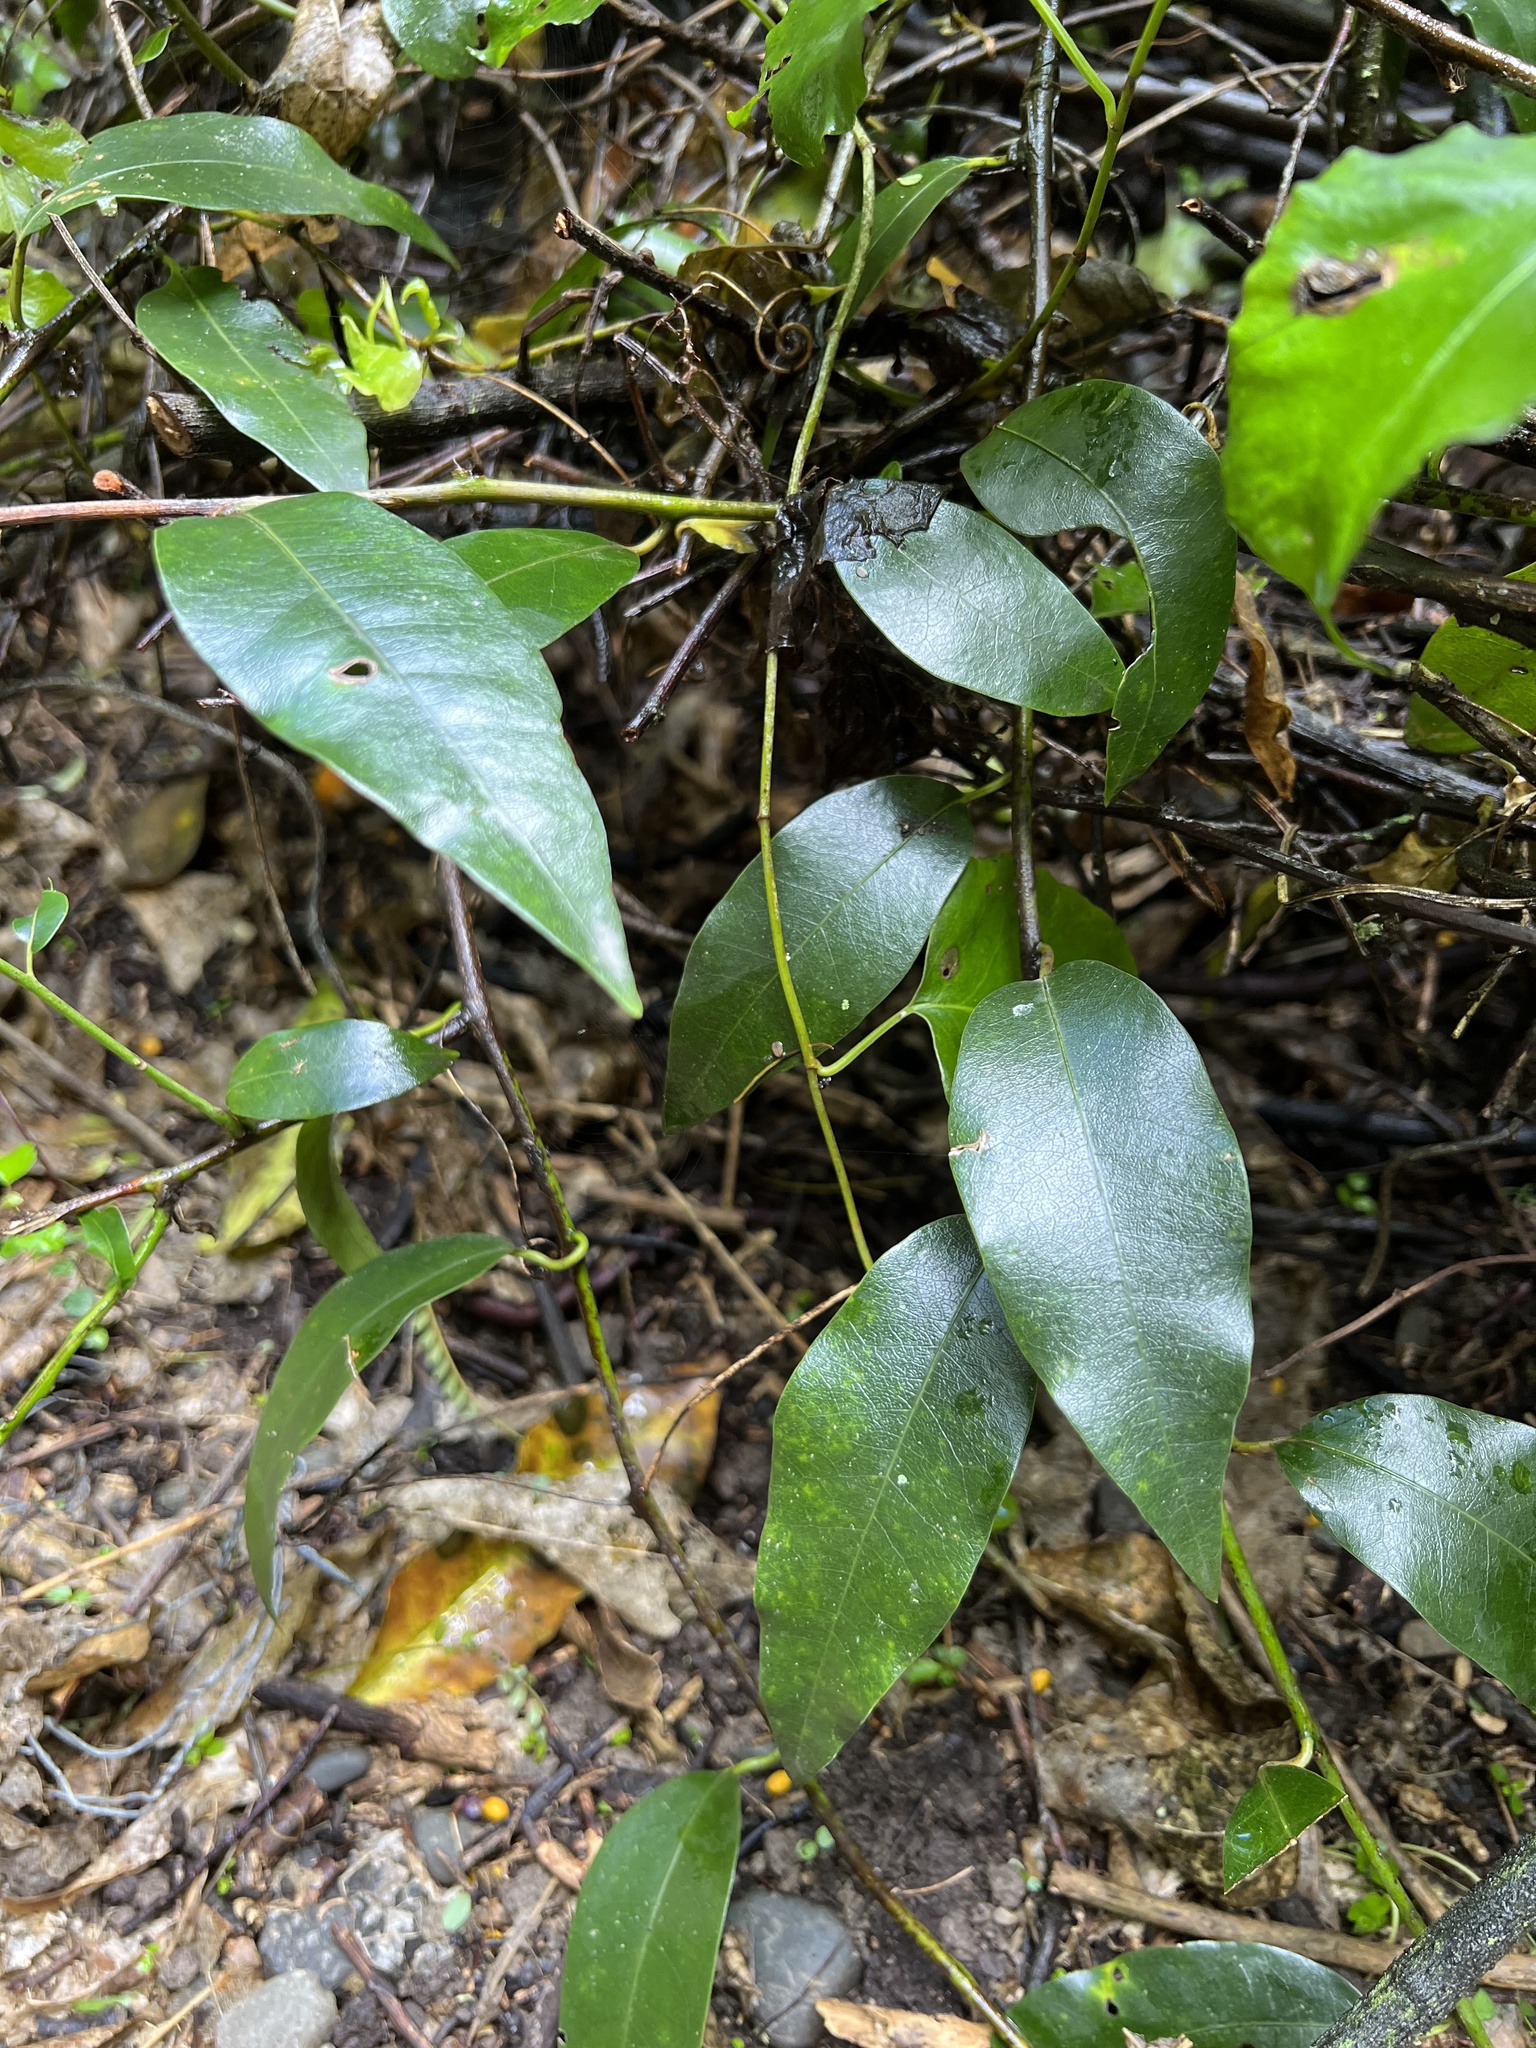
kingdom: Plantae
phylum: Tracheophyta
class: Magnoliopsida
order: Malpighiales
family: Passifloraceae
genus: Passiflora
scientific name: Passiflora tetrandra
